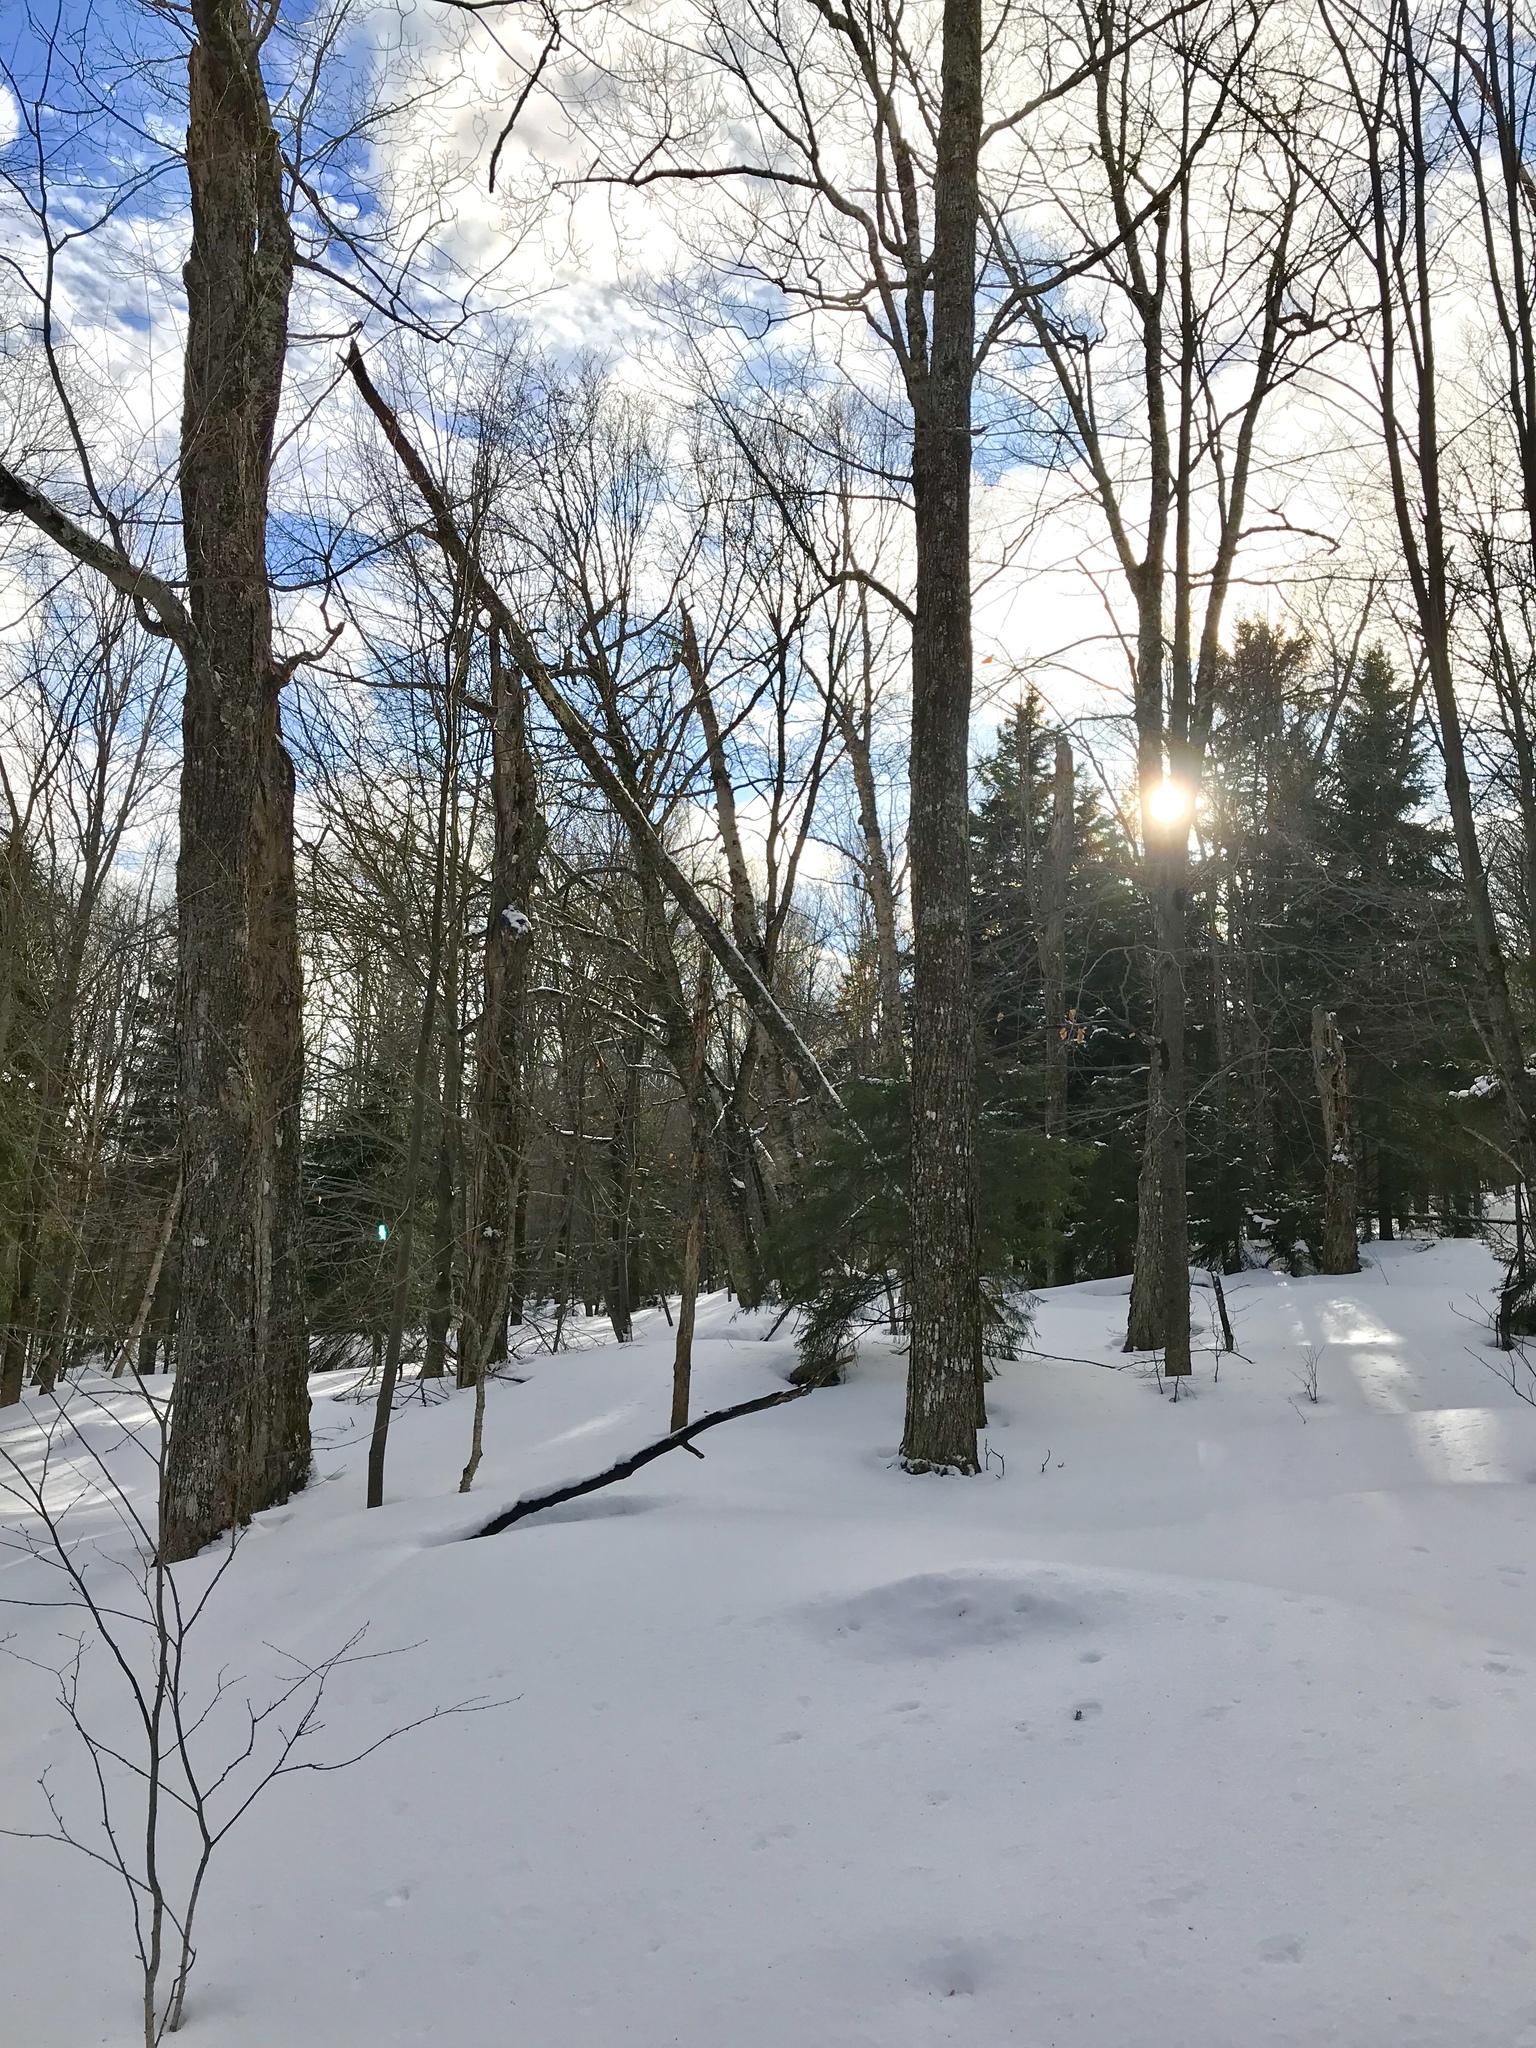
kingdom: Plantae
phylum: Tracheophyta
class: Magnoliopsida
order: Sapindales
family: Sapindaceae
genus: Acer
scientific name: Acer saccharum
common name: Sugar maple
